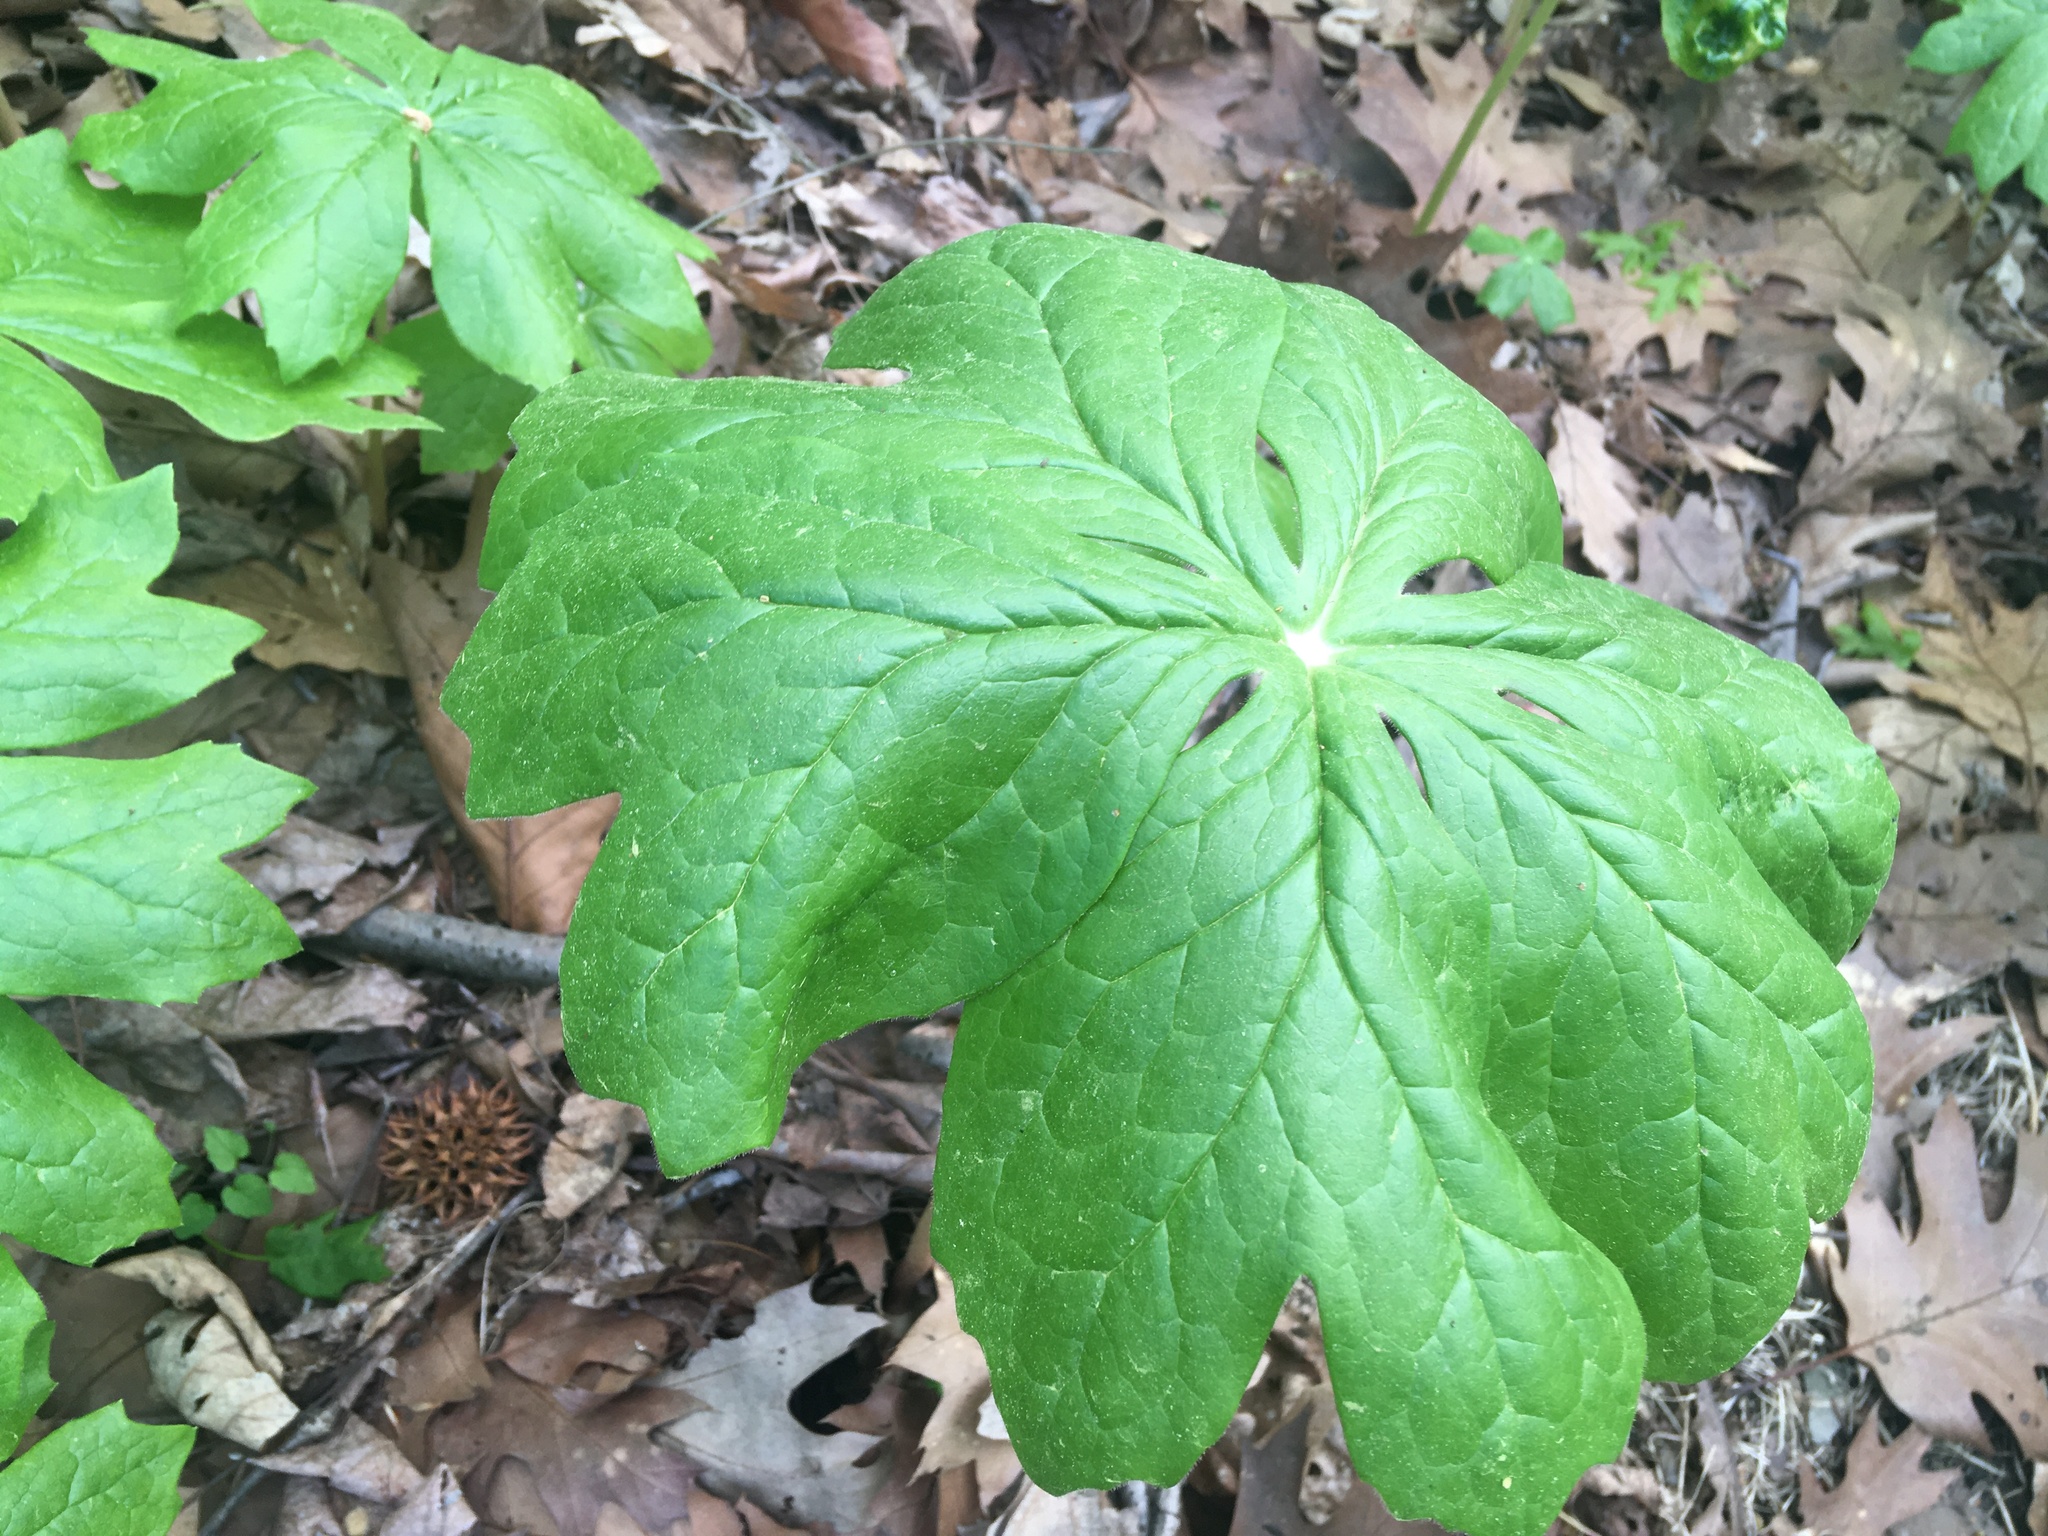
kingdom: Plantae
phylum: Tracheophyta
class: Magnoliopsida
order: Ranunculales
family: Berberidaceae
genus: Podophyllum
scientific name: Podophyllum peltatum
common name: Wild mandrake
